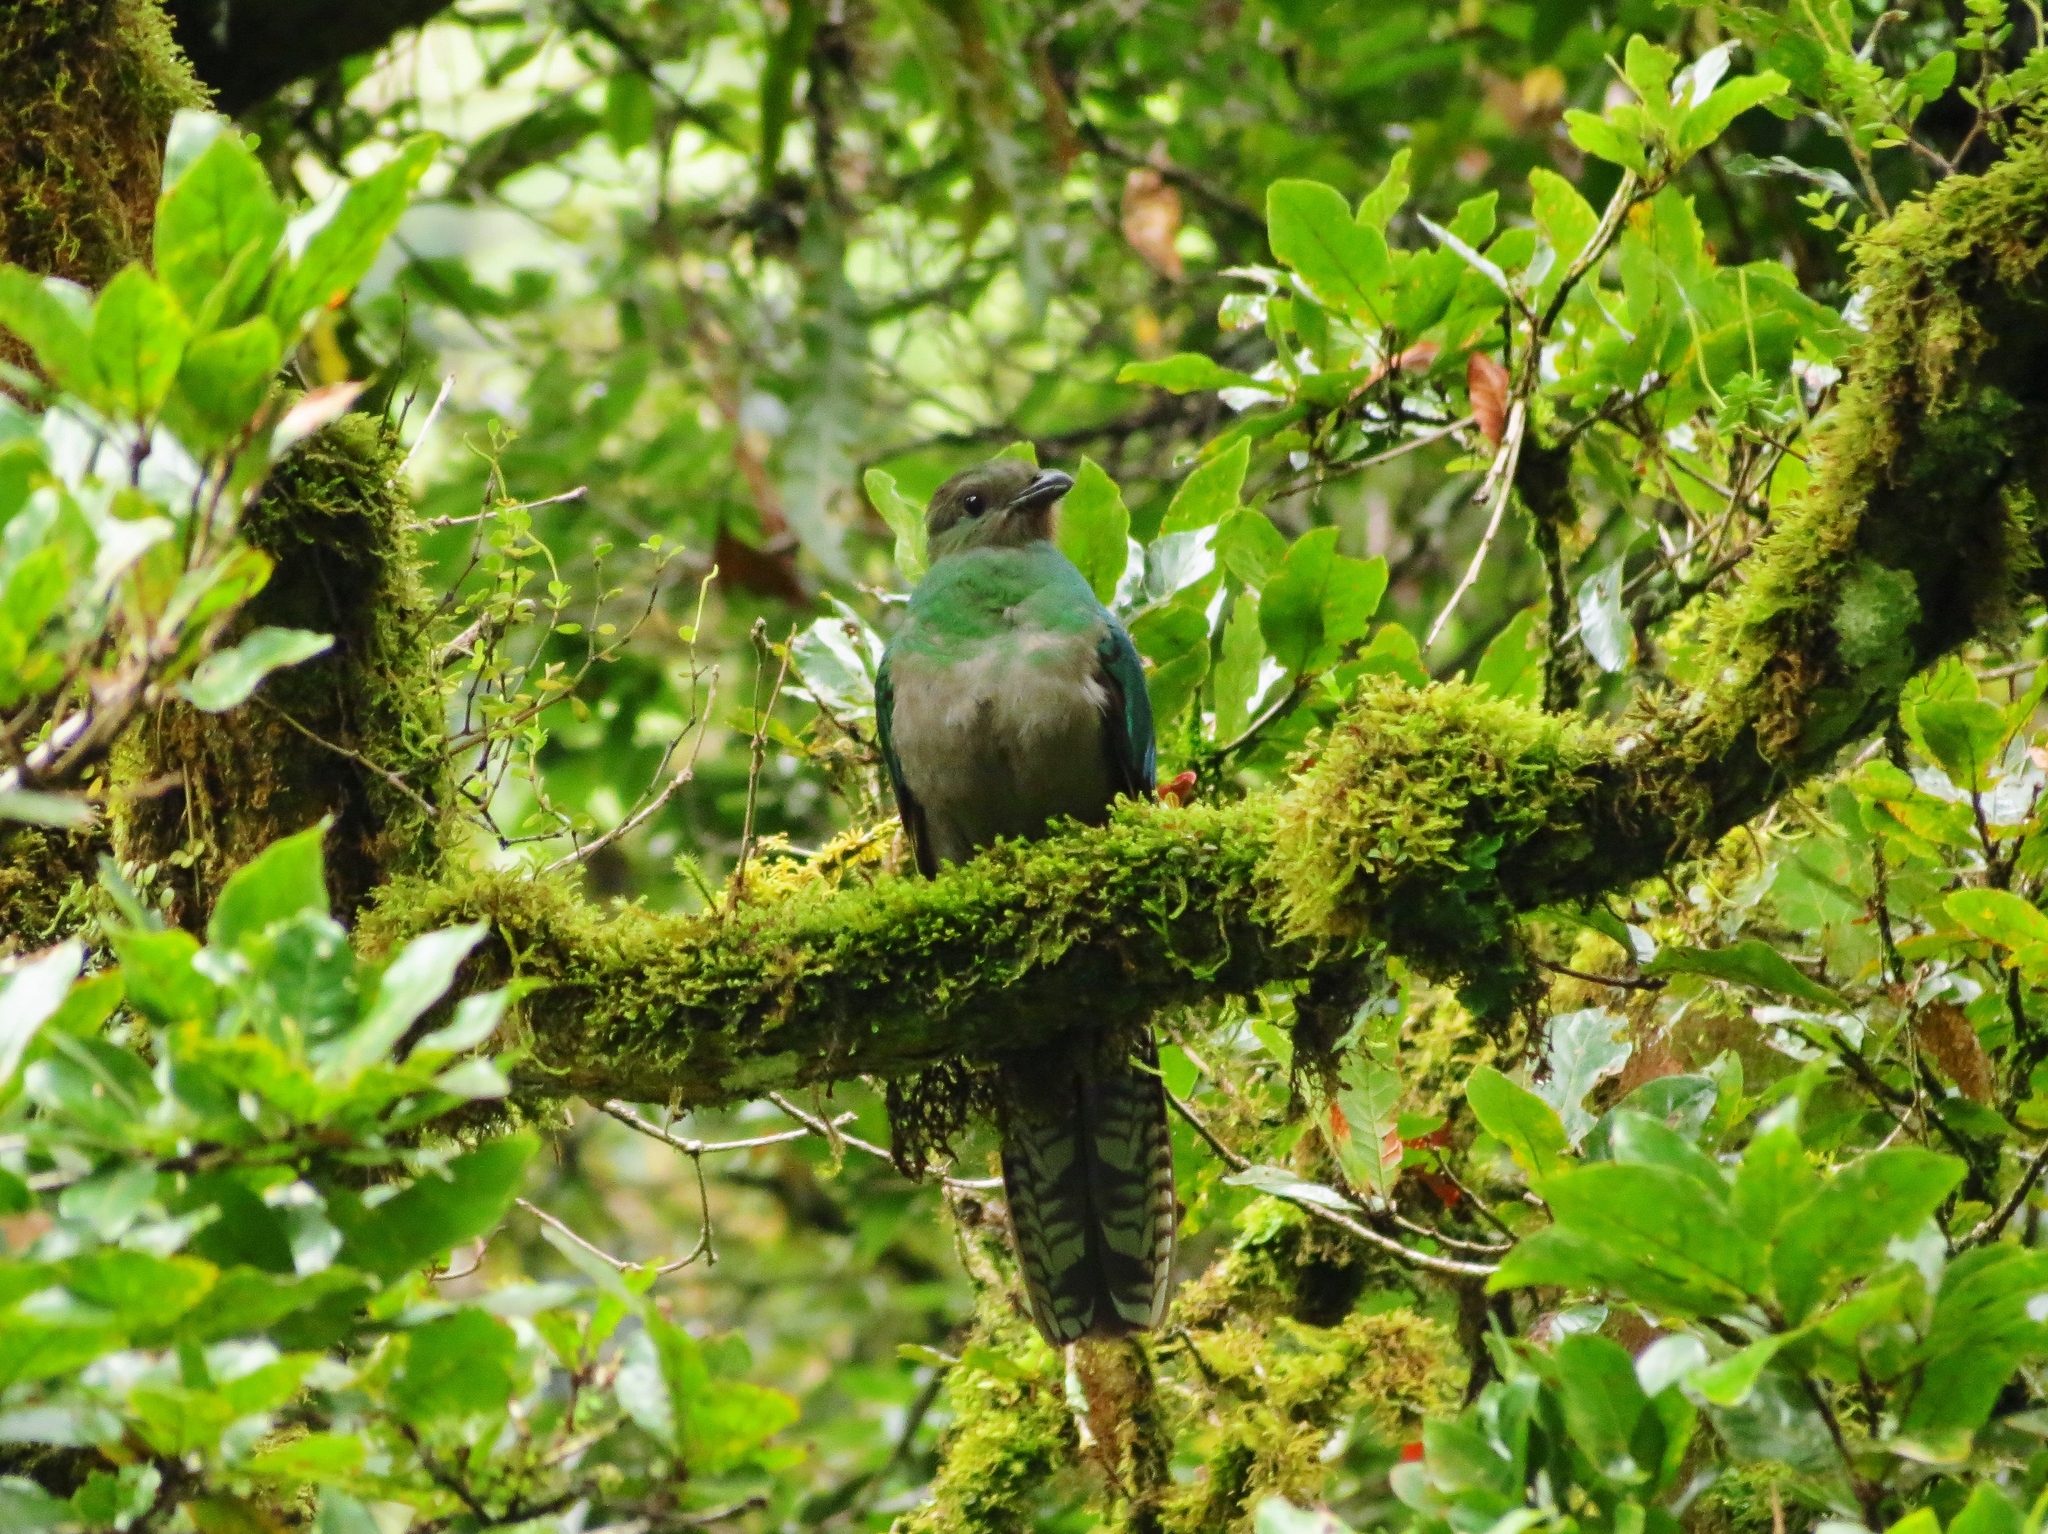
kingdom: Animalia
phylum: Chordata
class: Aves
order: Trogoniformes
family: Trogonidae
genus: Pharomachrus
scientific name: Pharomachrus mocinno
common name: Resplendent quetzal
